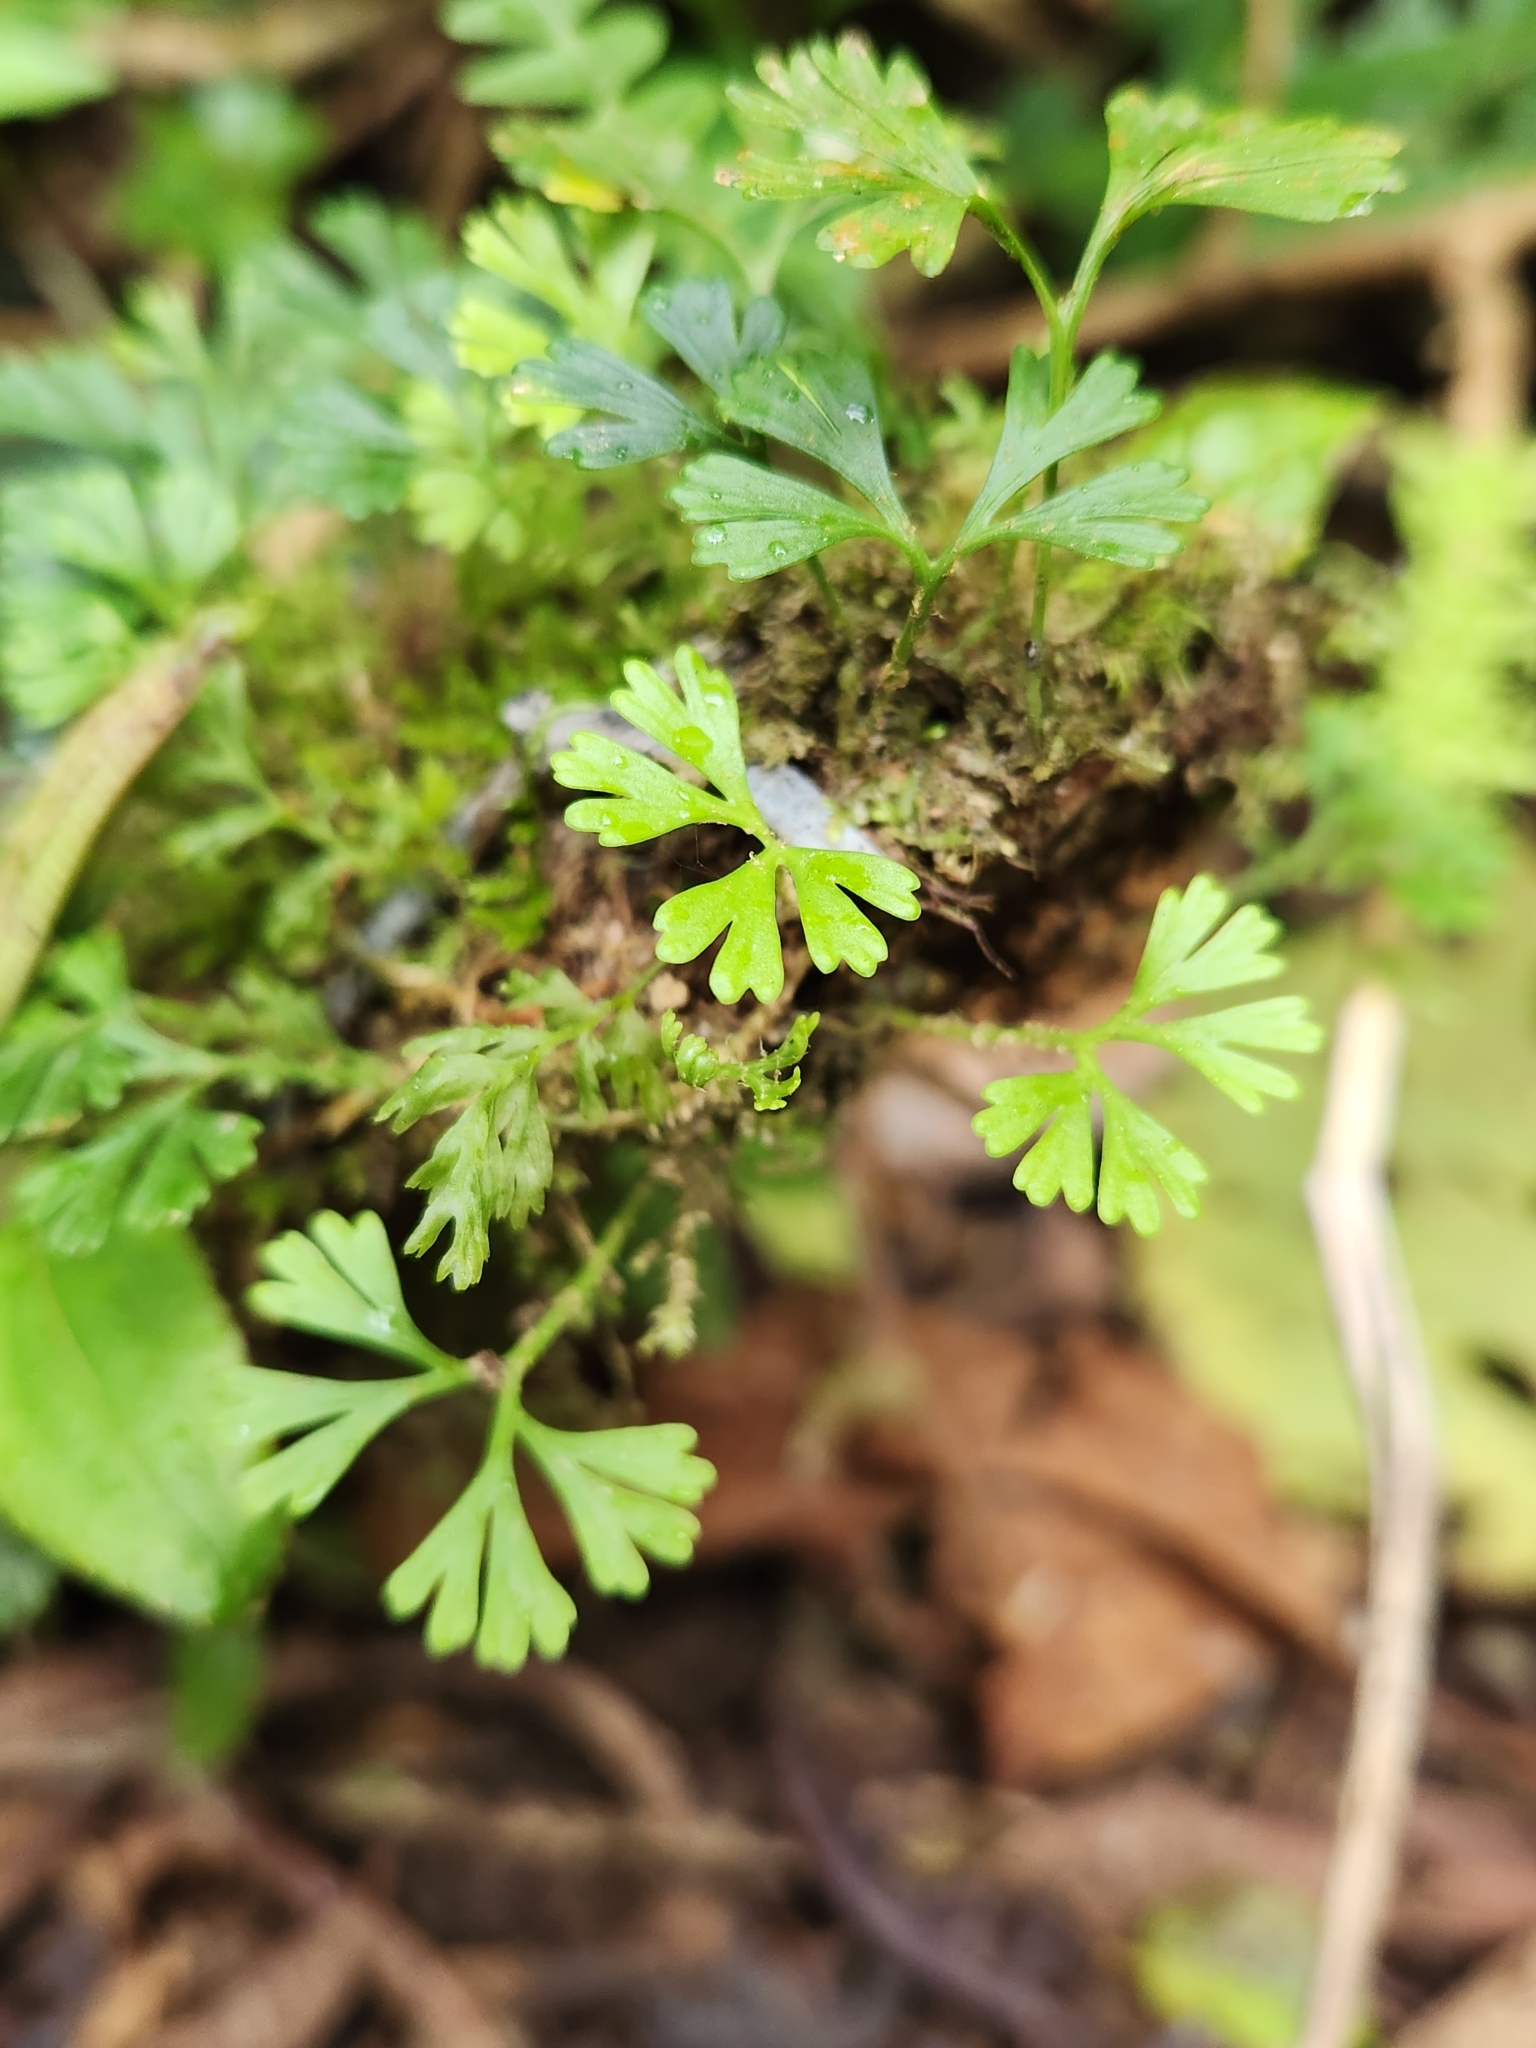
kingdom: Plantae
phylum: Tracheophyta
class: Polypodiopsida
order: Polypodiales
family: Dryopteridaceae
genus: Elaphoglossum
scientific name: Elaphoglossum peltatum
